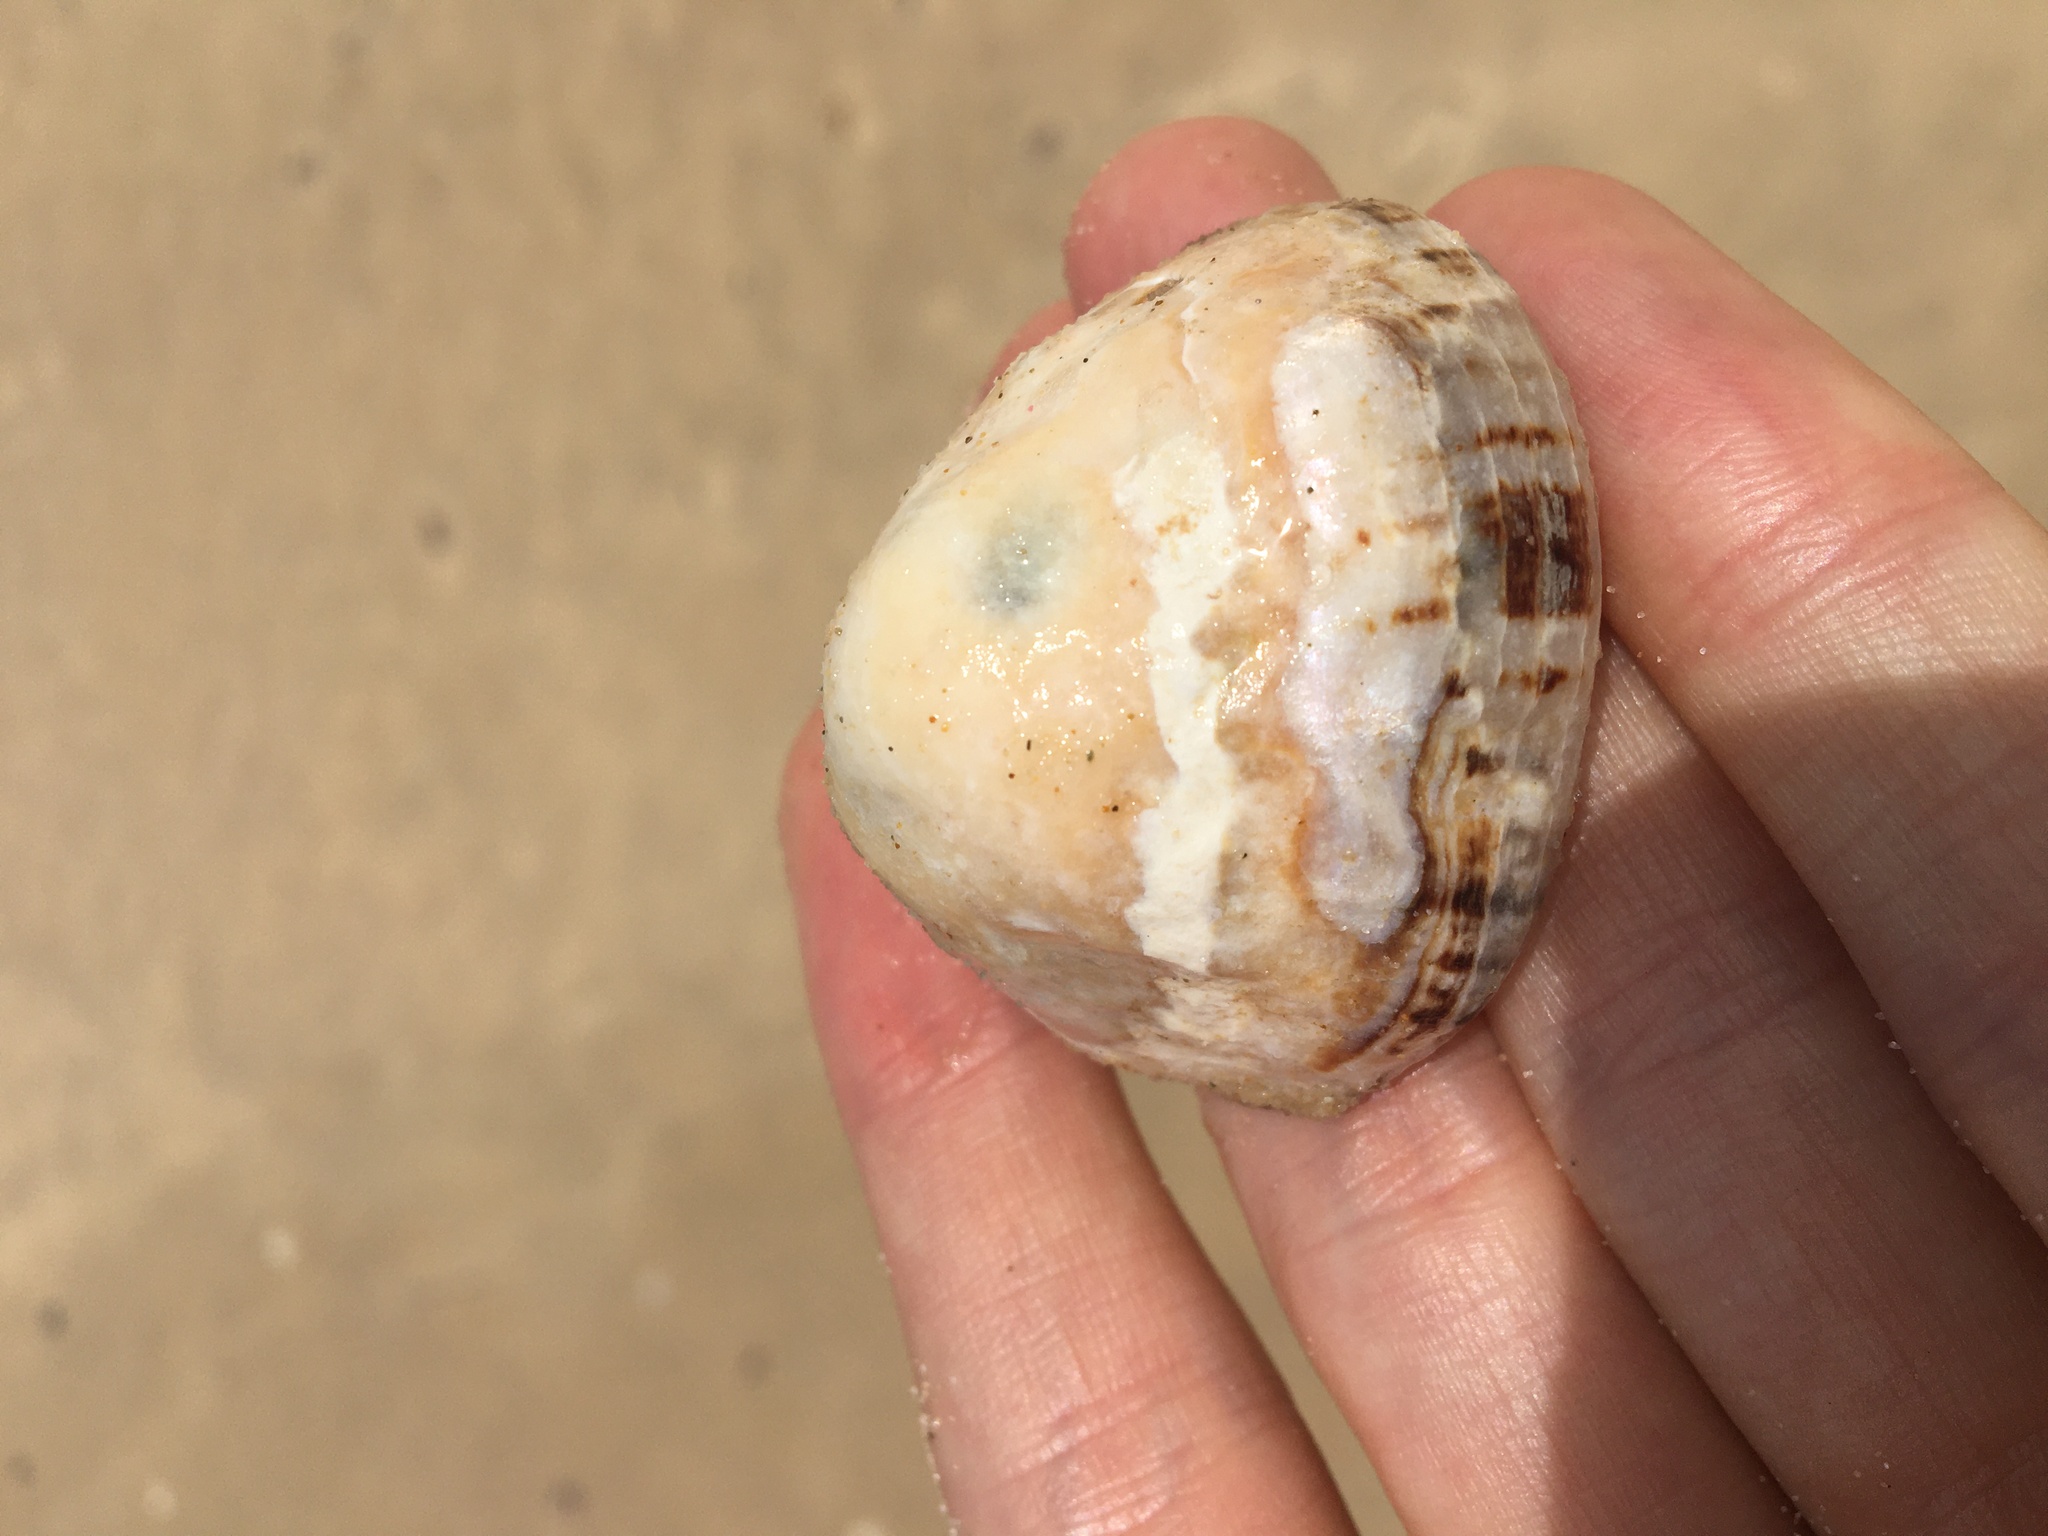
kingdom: Animalia
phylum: Mollusca
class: Gastropoda
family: Nacellidae
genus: Cellana
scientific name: Cellana tramoserica
